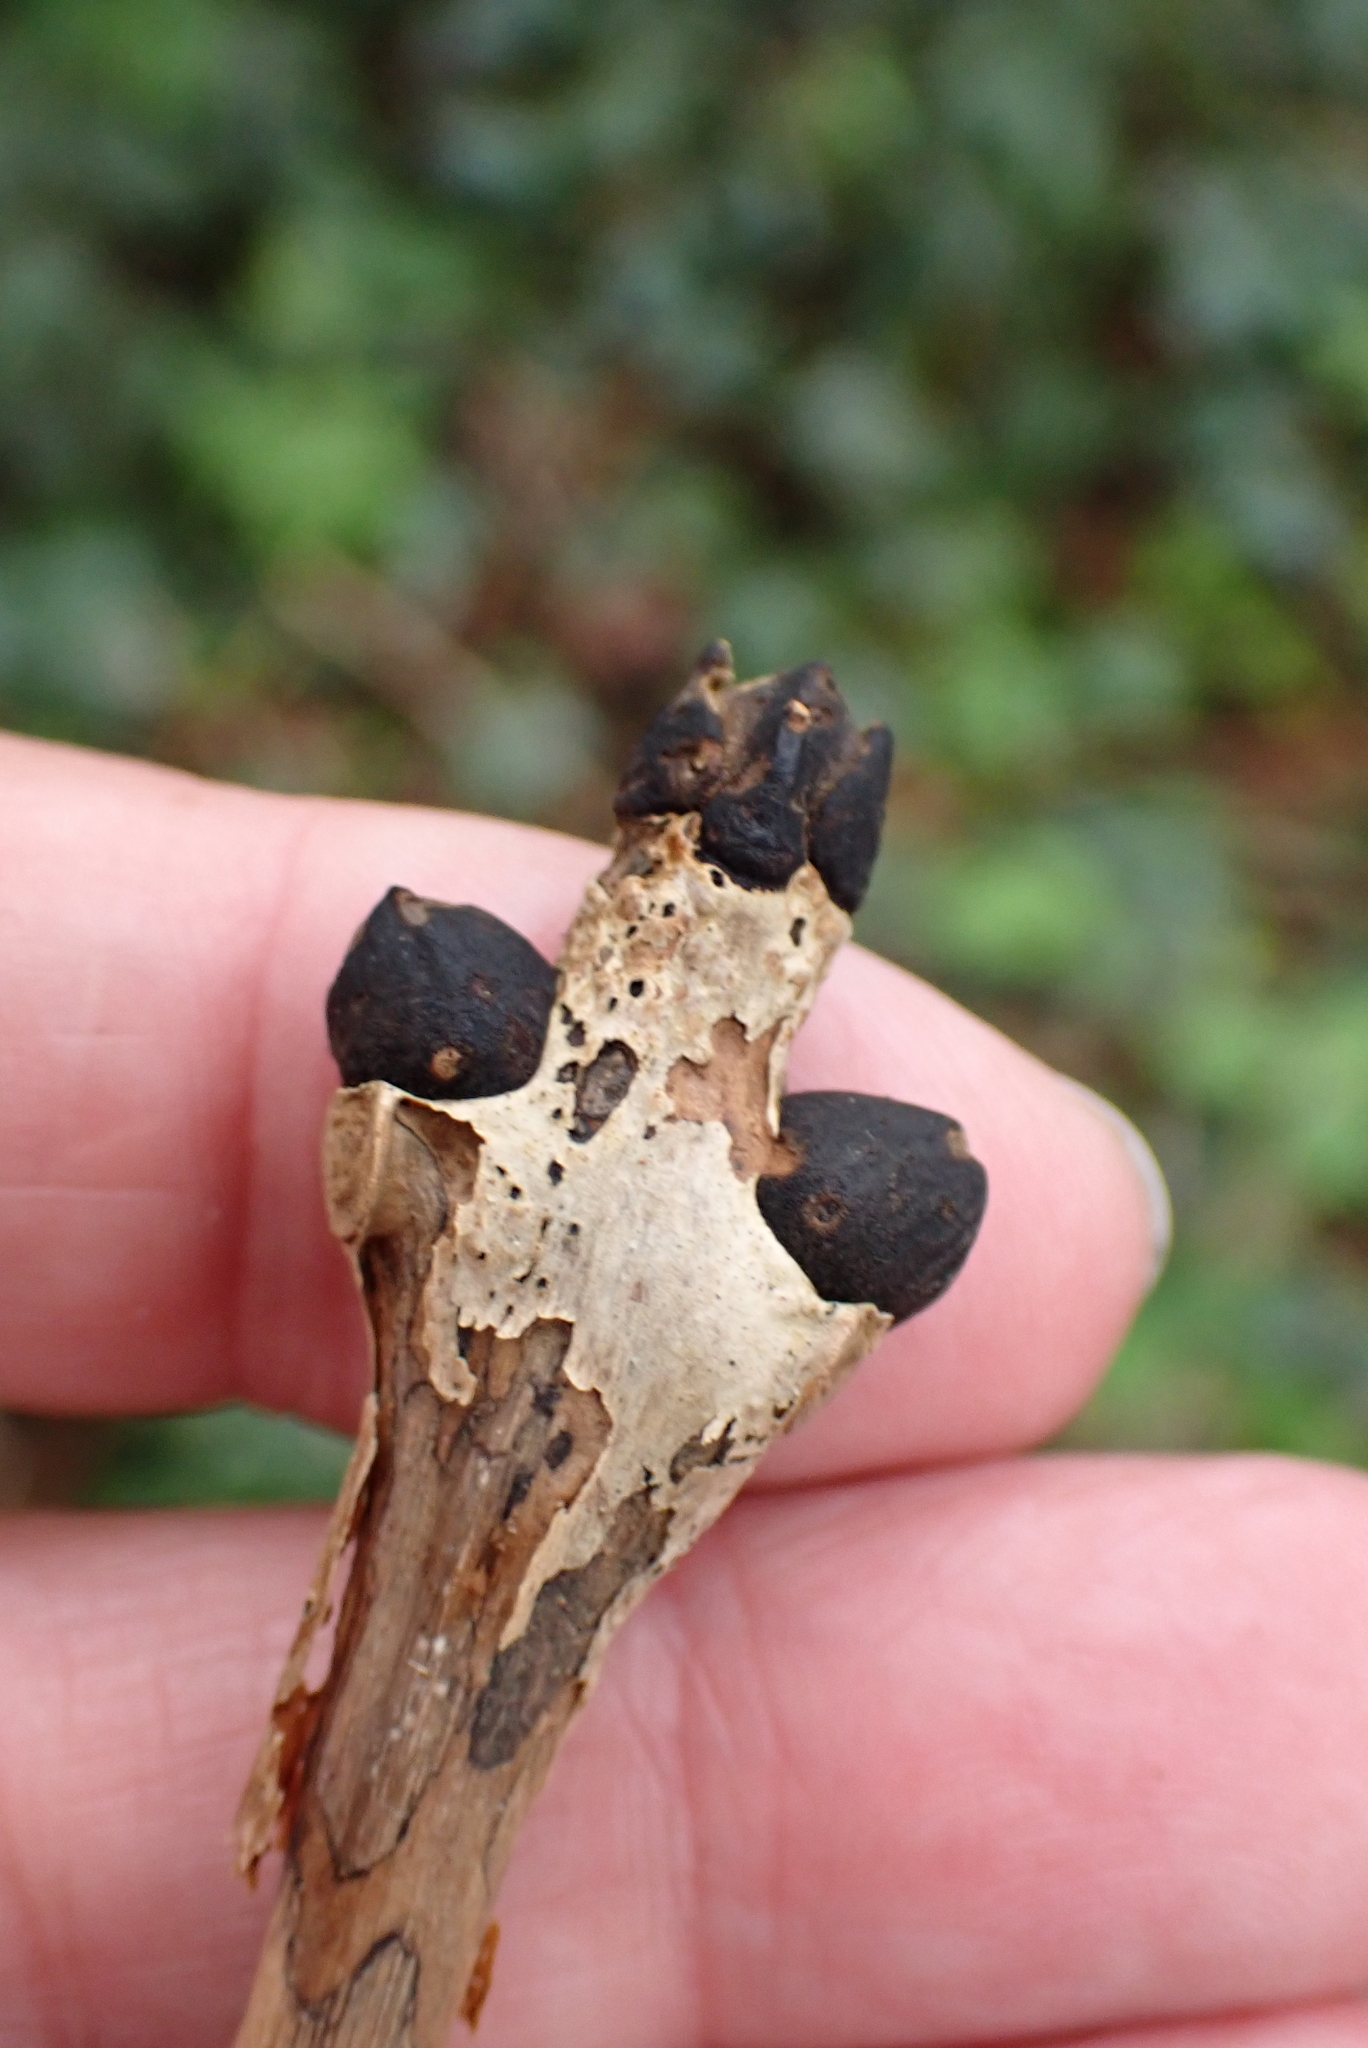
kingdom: Plantae
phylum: Tracheophyta
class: Magnoliopsida
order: Lamiales
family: Oleaceae
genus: Fraxinus
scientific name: Fraxinus excelsior
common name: European ash
